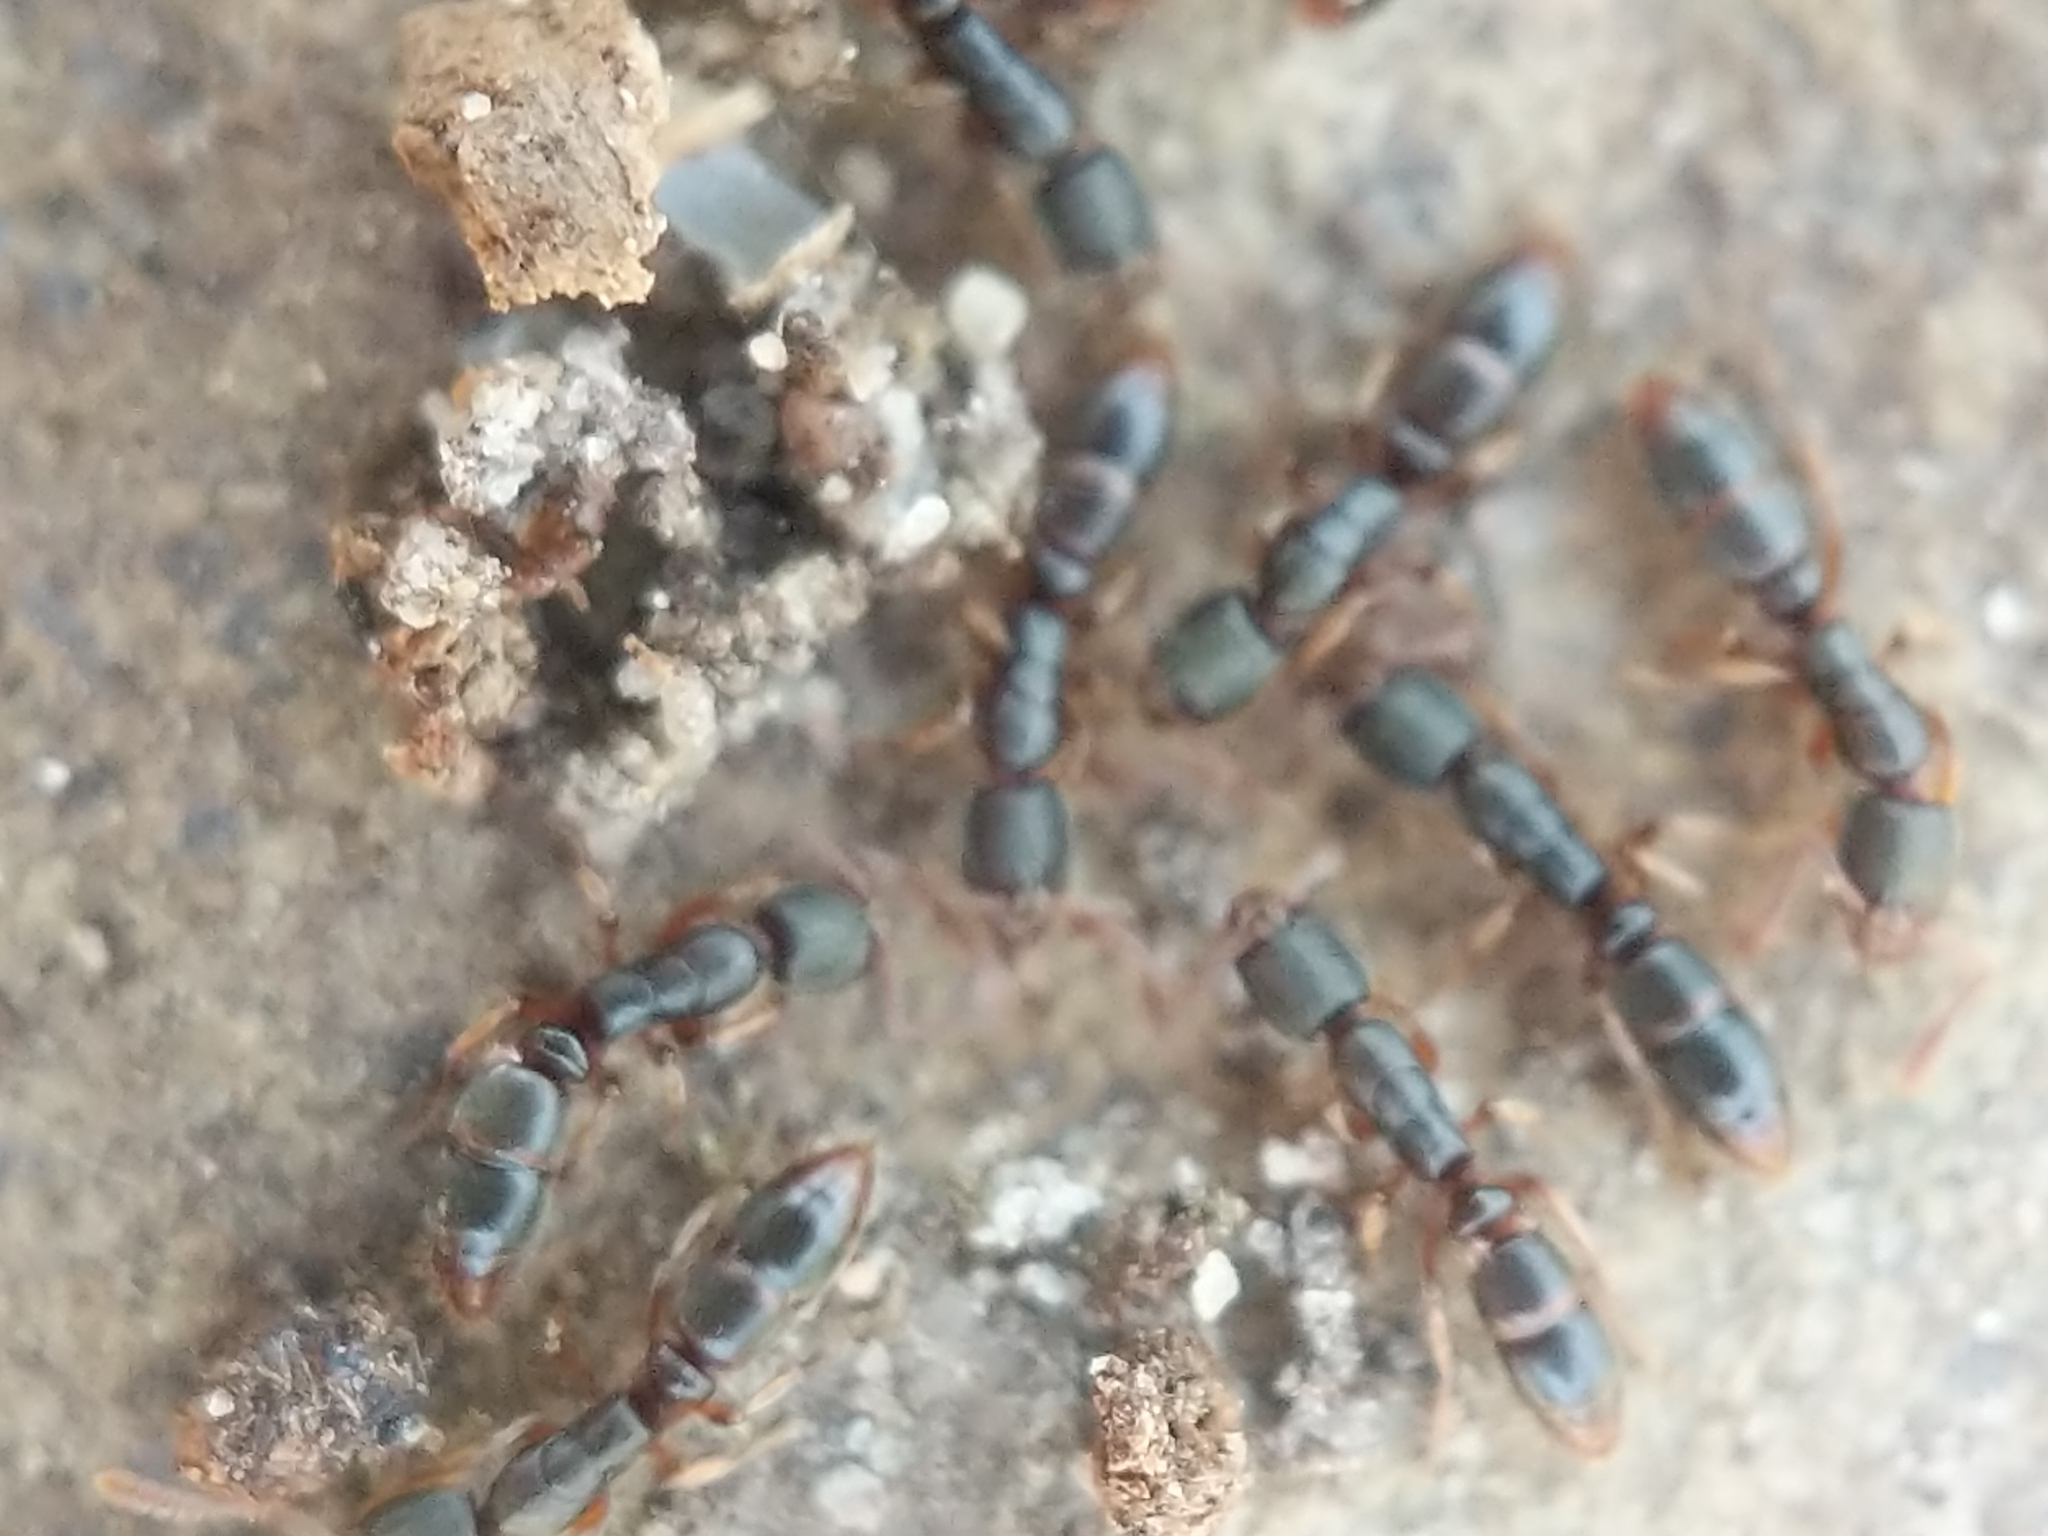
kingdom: Animalia
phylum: Arthropoda
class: Insecta
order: Hymenoptera
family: Formicidae
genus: Ponera
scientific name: Ponera pennsylvanica
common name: Pennsylvania ponera
